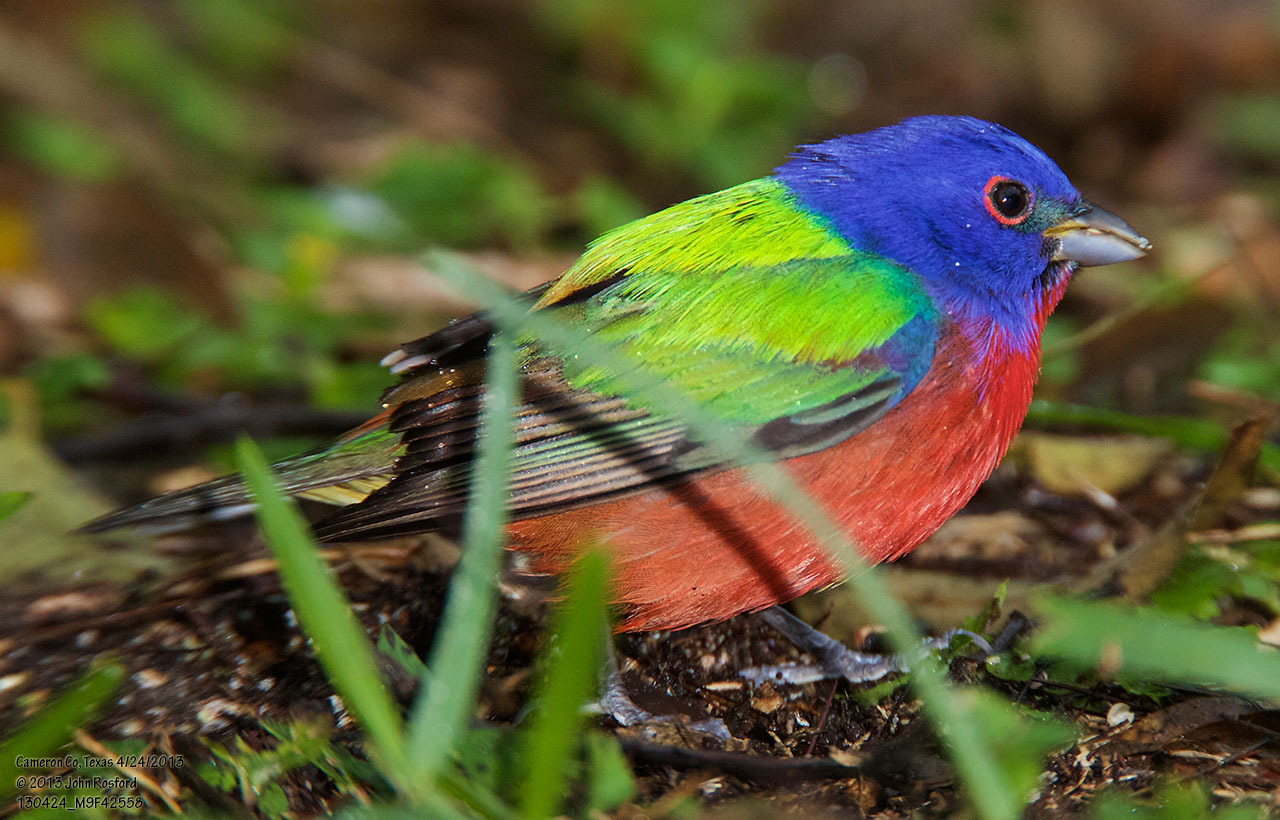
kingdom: Animalia
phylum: Chordata
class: Aves
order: Passeriformes
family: Cardinalidae
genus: Passerina
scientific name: Passerina ciris
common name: Painted bunting
